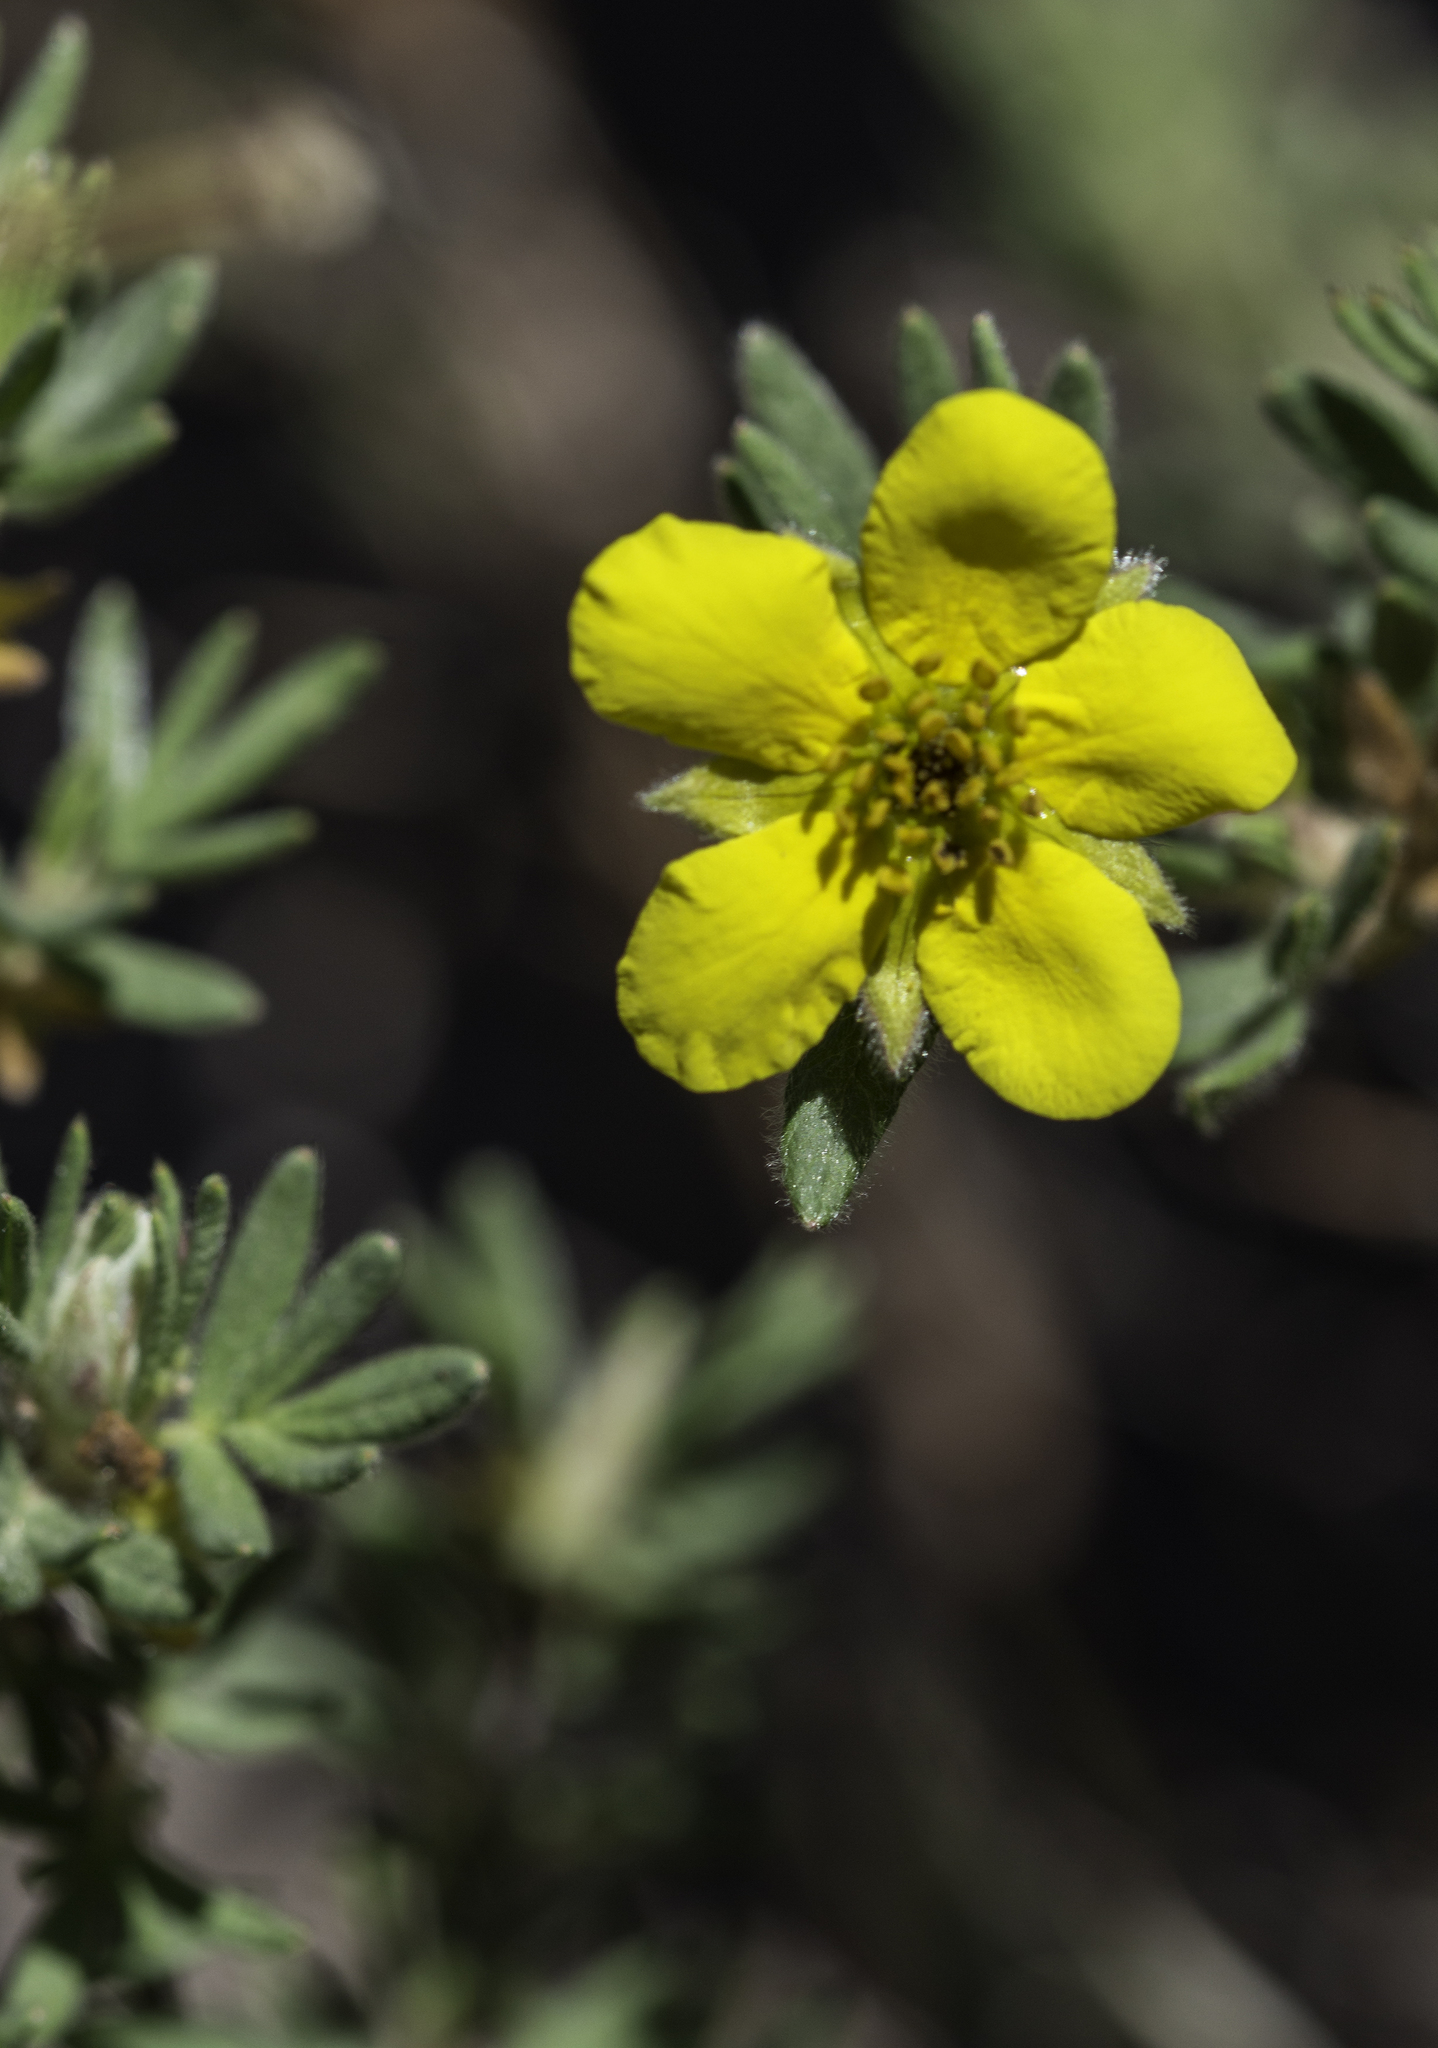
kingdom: Plantae
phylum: Tracheophyta
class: Magnoliopsida
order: Rosales
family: Rosaceae
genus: Dasiphora
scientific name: Dasiphora fruticosa
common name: Shrubby cinquefoil
